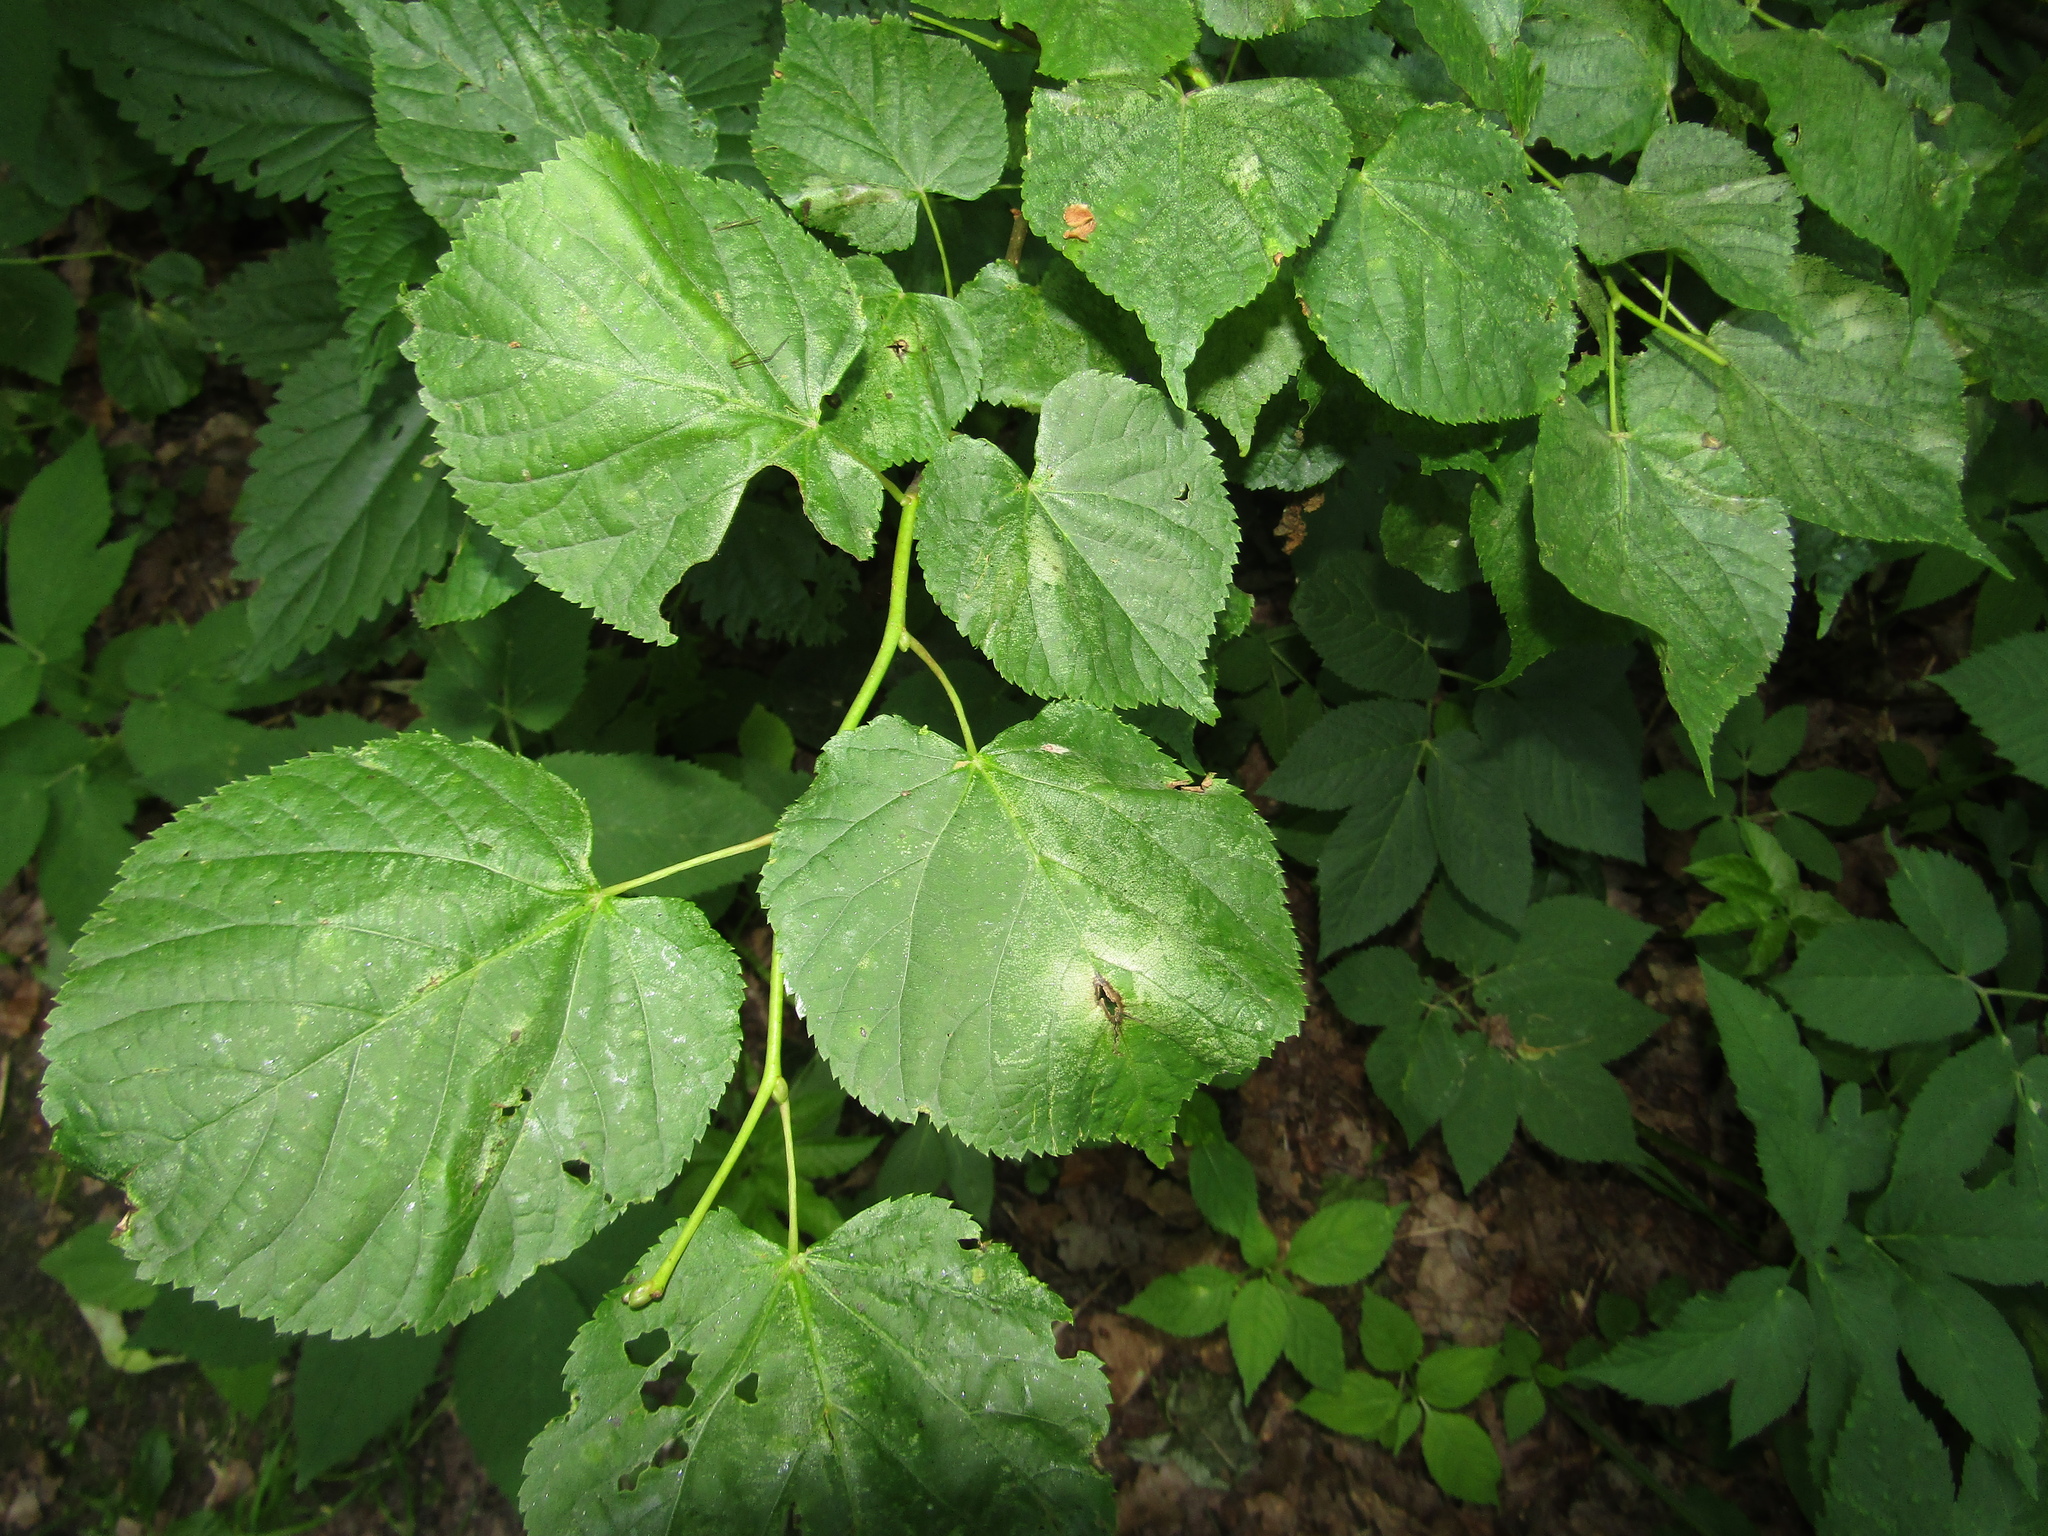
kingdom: Plantae
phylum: Tracheophyta
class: Magnoliopsida
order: Malvales
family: Malvaceae
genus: Tilia
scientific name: Tilia cordata
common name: Small-leaved lime
